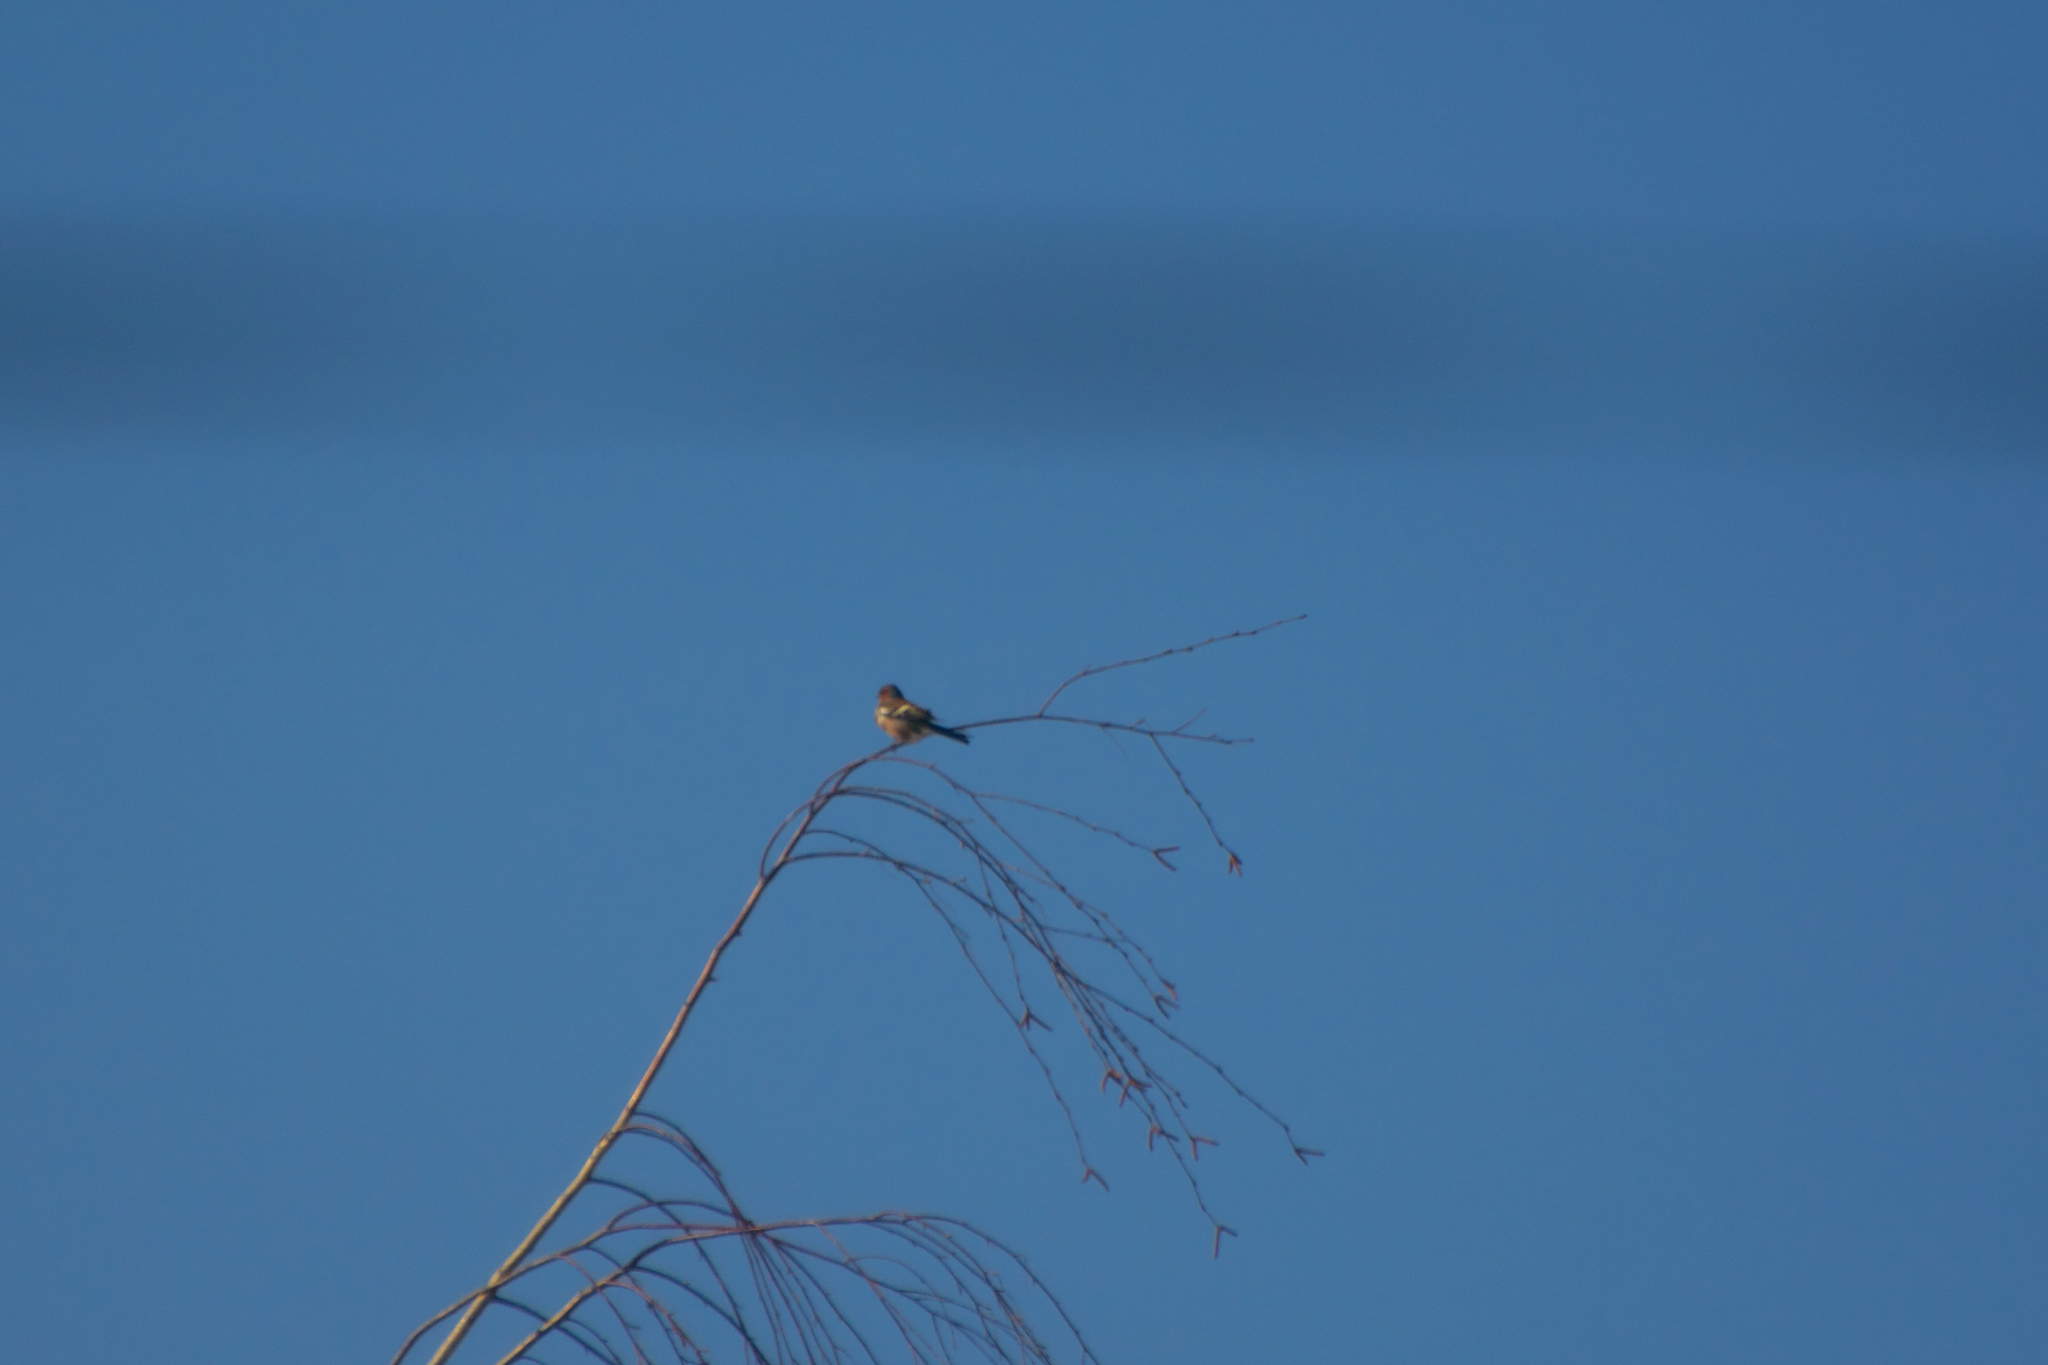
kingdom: Animalia
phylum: Chordata
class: Aves
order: Passeriformes
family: Fringillidae
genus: Fringilla
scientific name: Fringilla coelebs
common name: Common chaffinch
